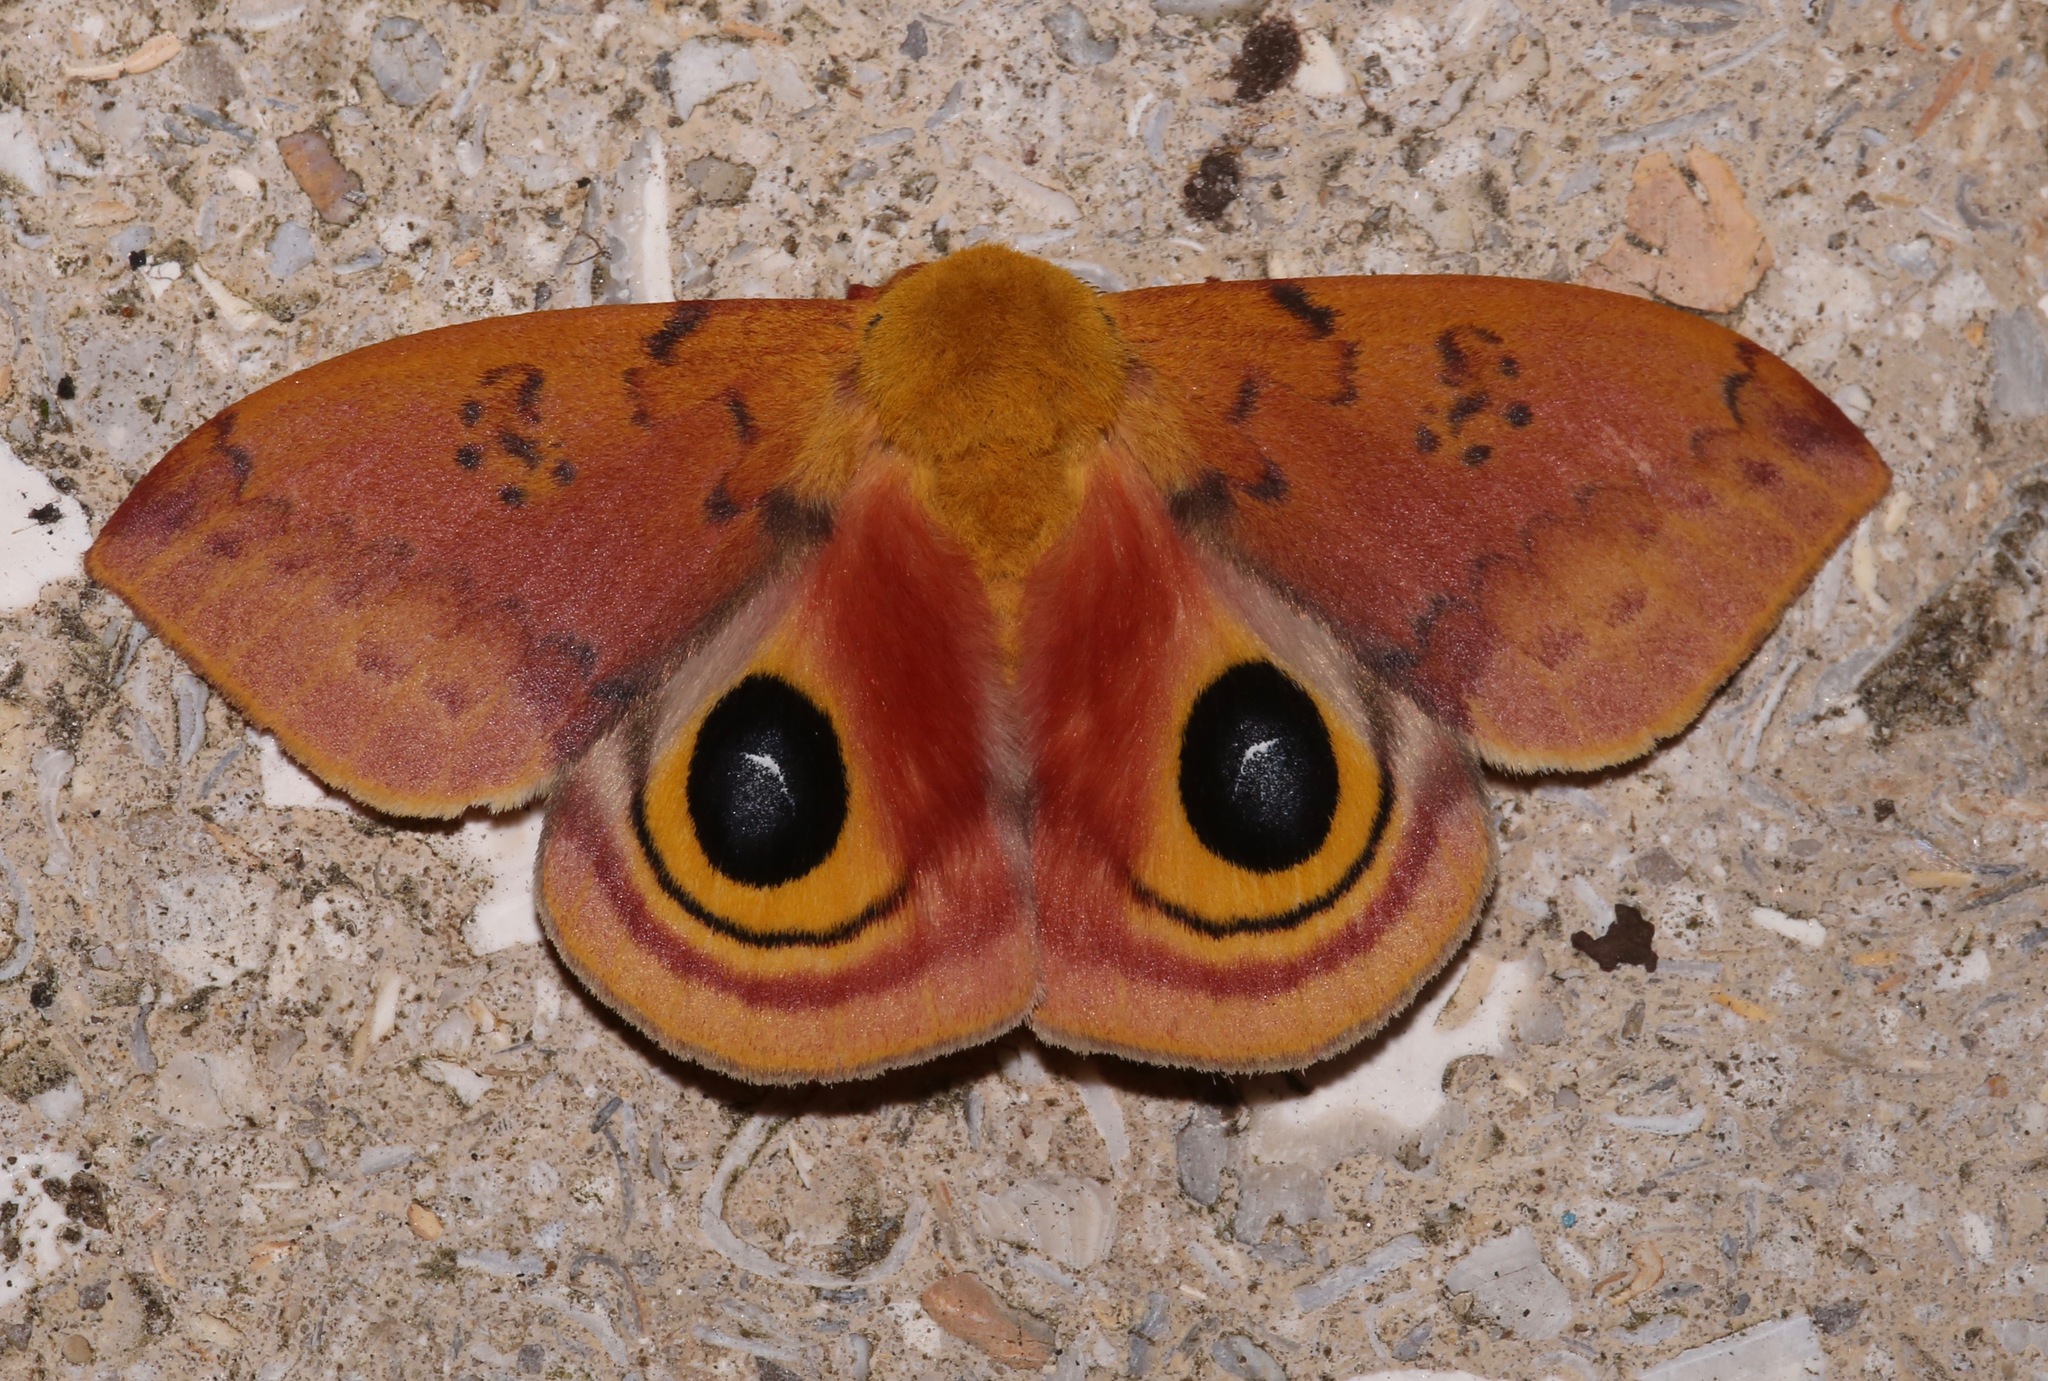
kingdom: Animalia
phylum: Arthropoda
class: Insecta
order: Lepidoptera
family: Saturniidae
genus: Automeris
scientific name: Automeris io
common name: Io moth
